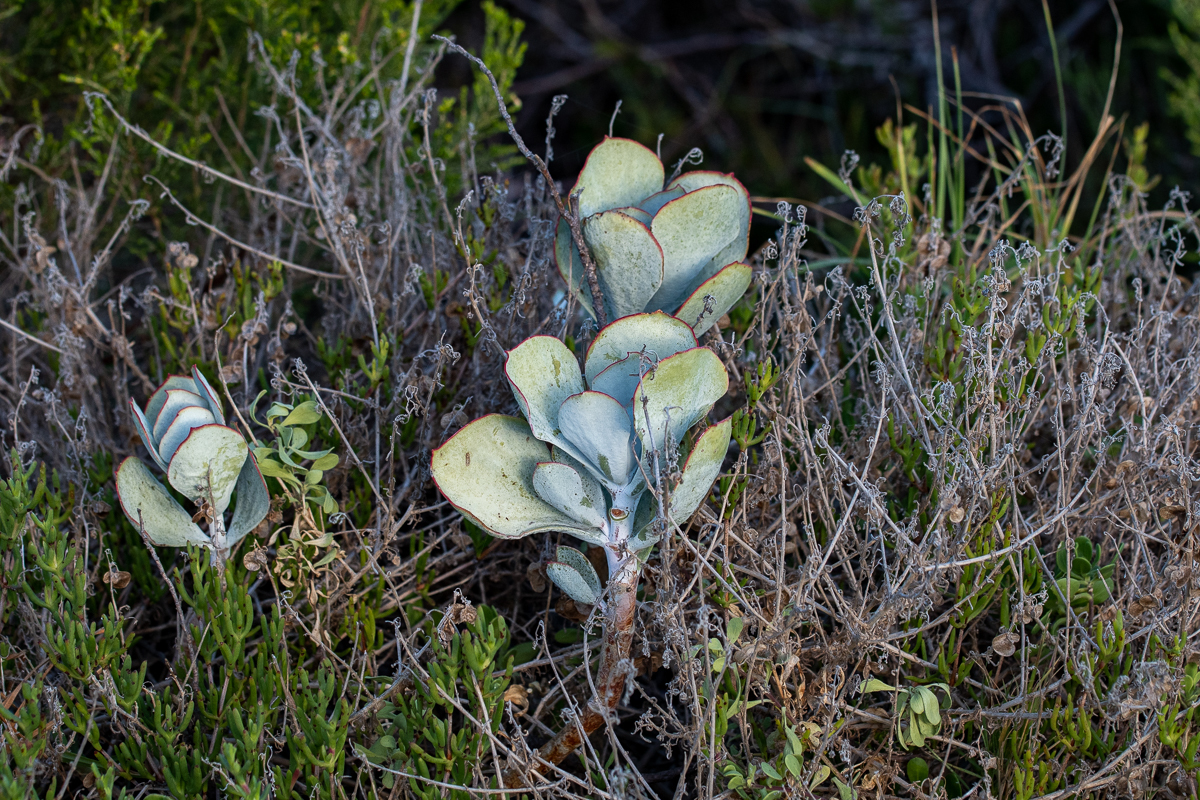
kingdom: Plantae
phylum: Tracheophyta
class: Magnoliopsida
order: Saxifragales
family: Crassulaceae
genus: Cotyledon
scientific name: Cotyledon orbiculata
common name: Pig's ear
